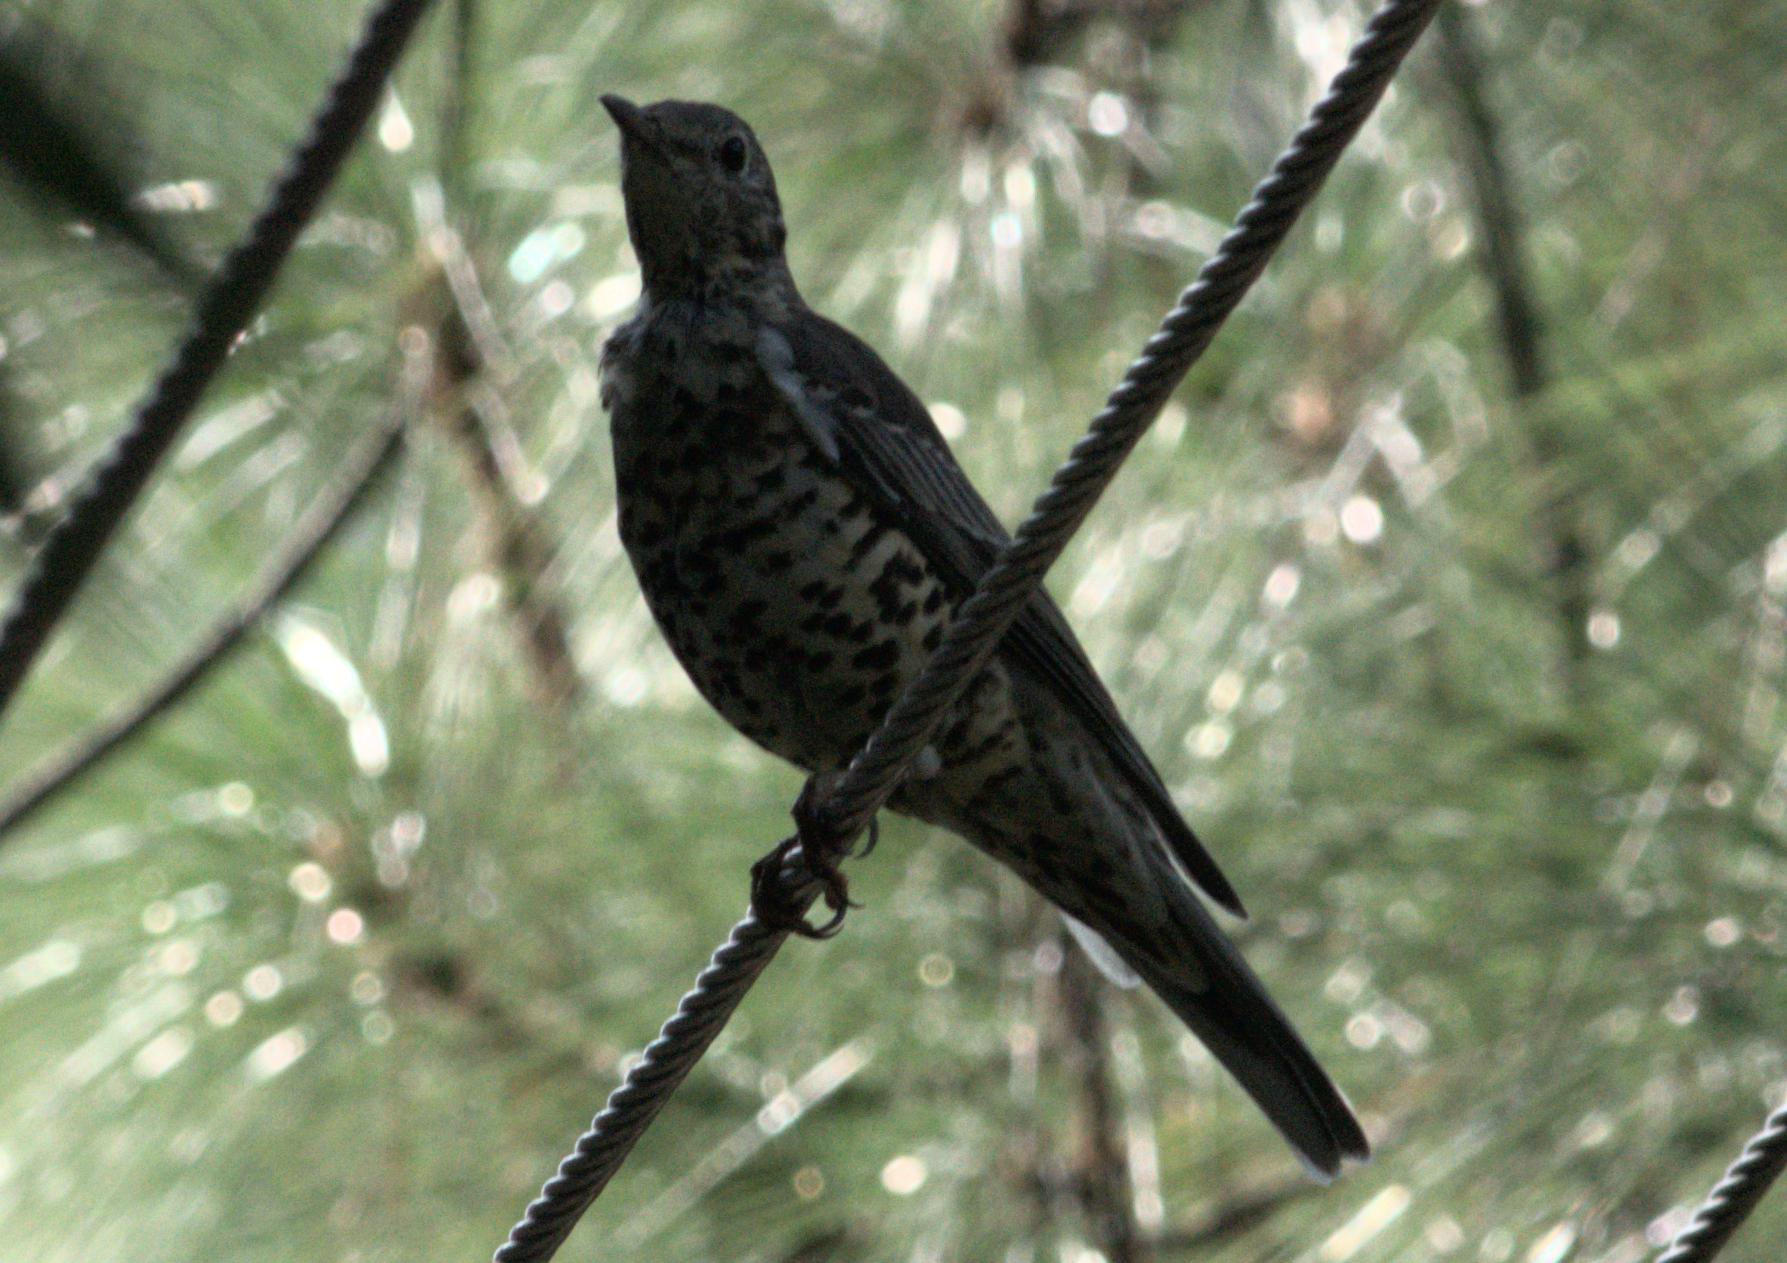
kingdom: Animalia
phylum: Chordata
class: Aves
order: Passeriformes
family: Turdidae
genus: Turdus
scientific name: Turdus viscivorus
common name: Mistle thrush
